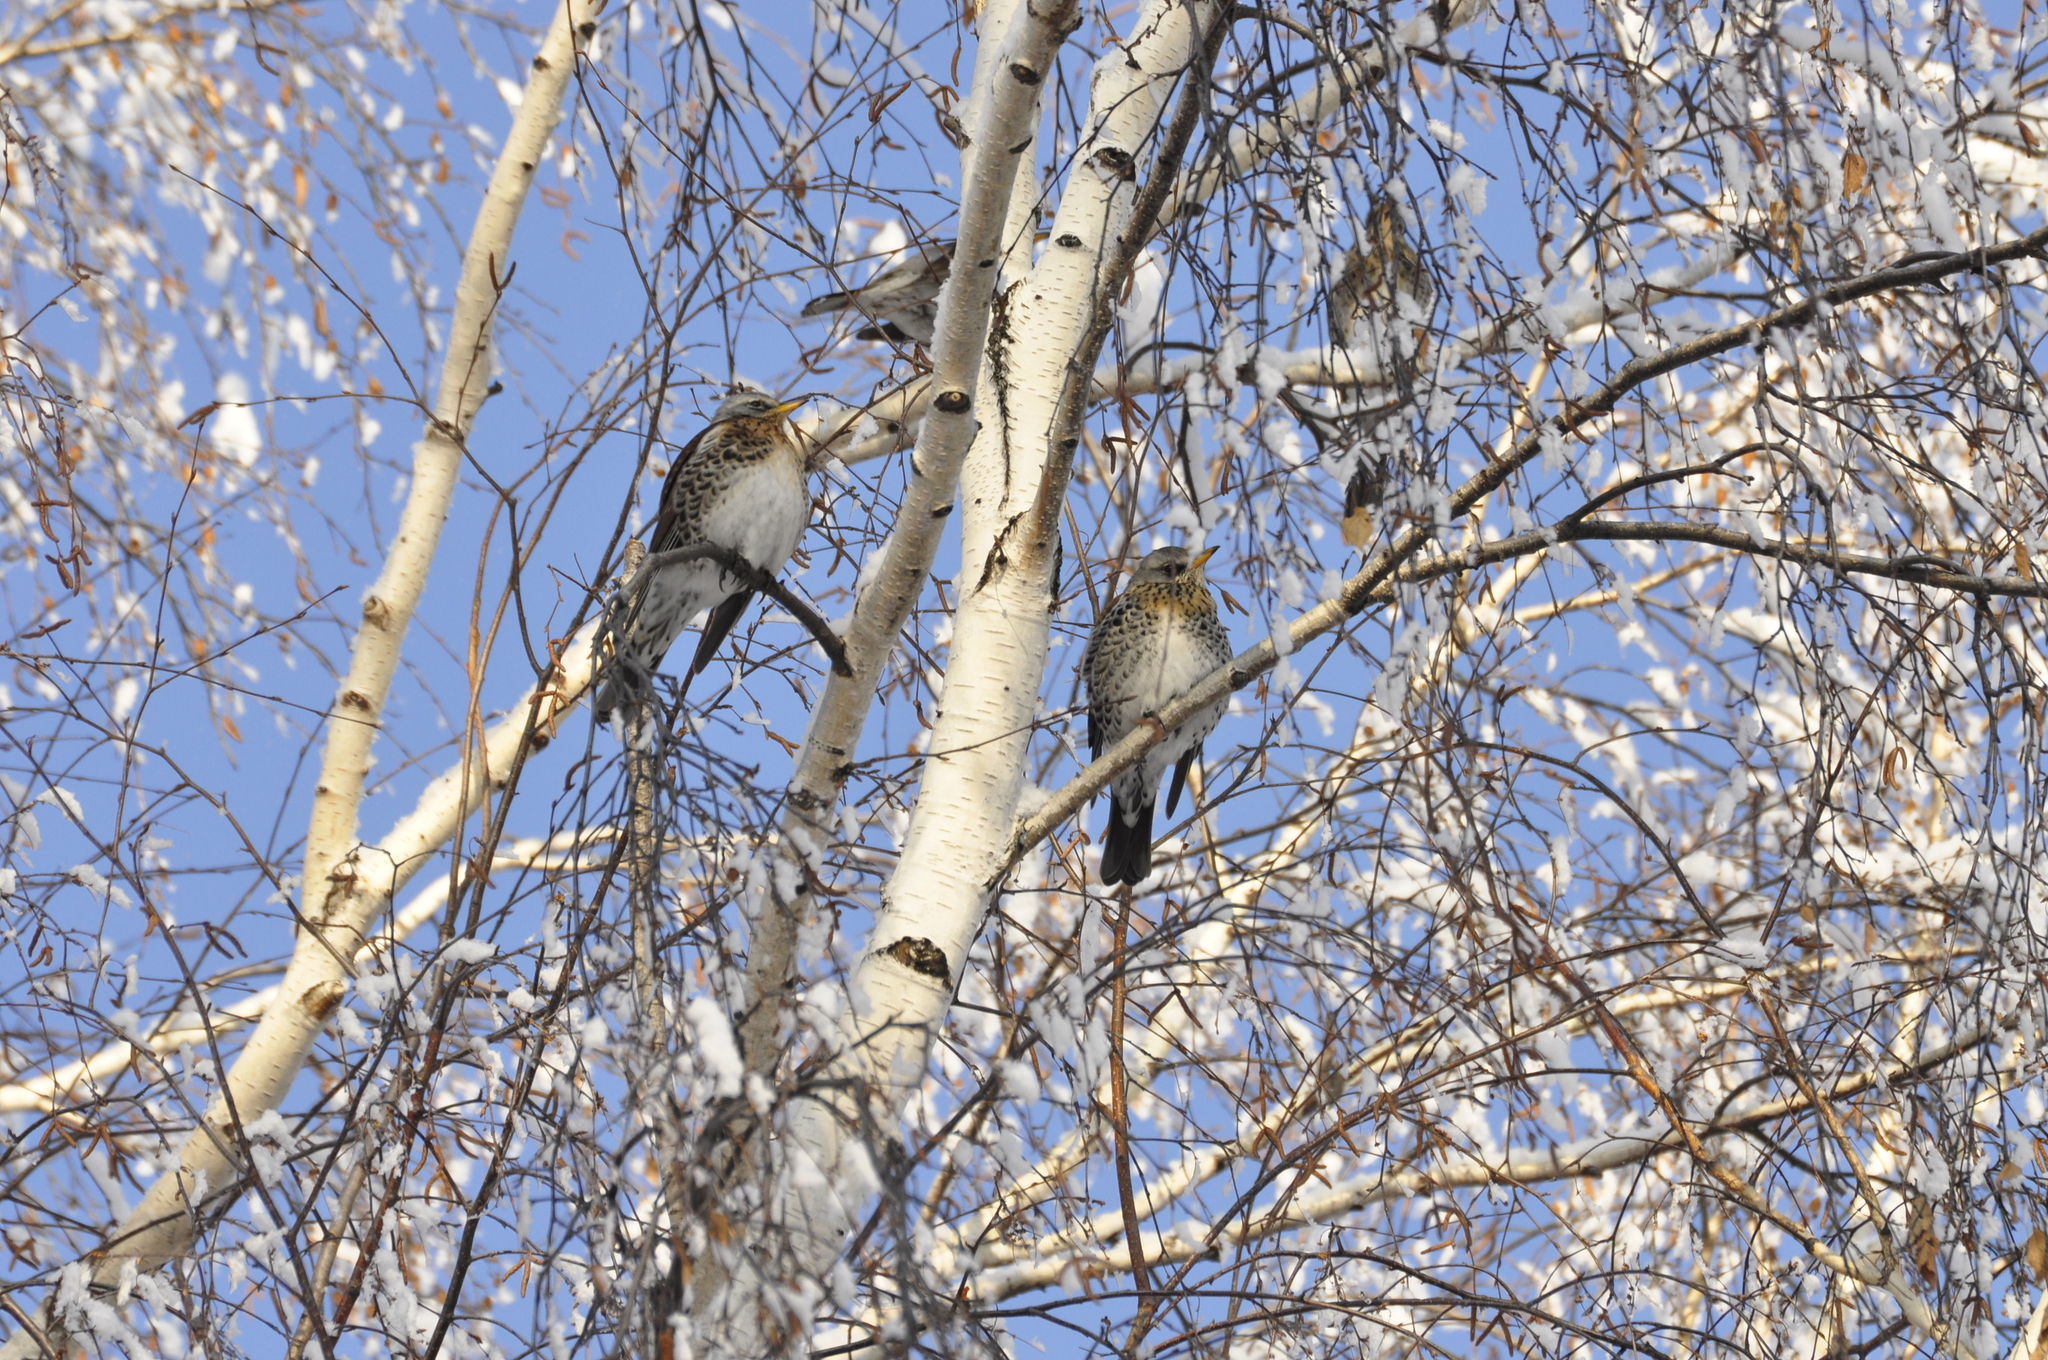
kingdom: Animalia
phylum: Chordata
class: Aves
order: Passeriformes
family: Turdidae
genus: Turdus
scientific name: Turdus pilaris
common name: Fieldfare
